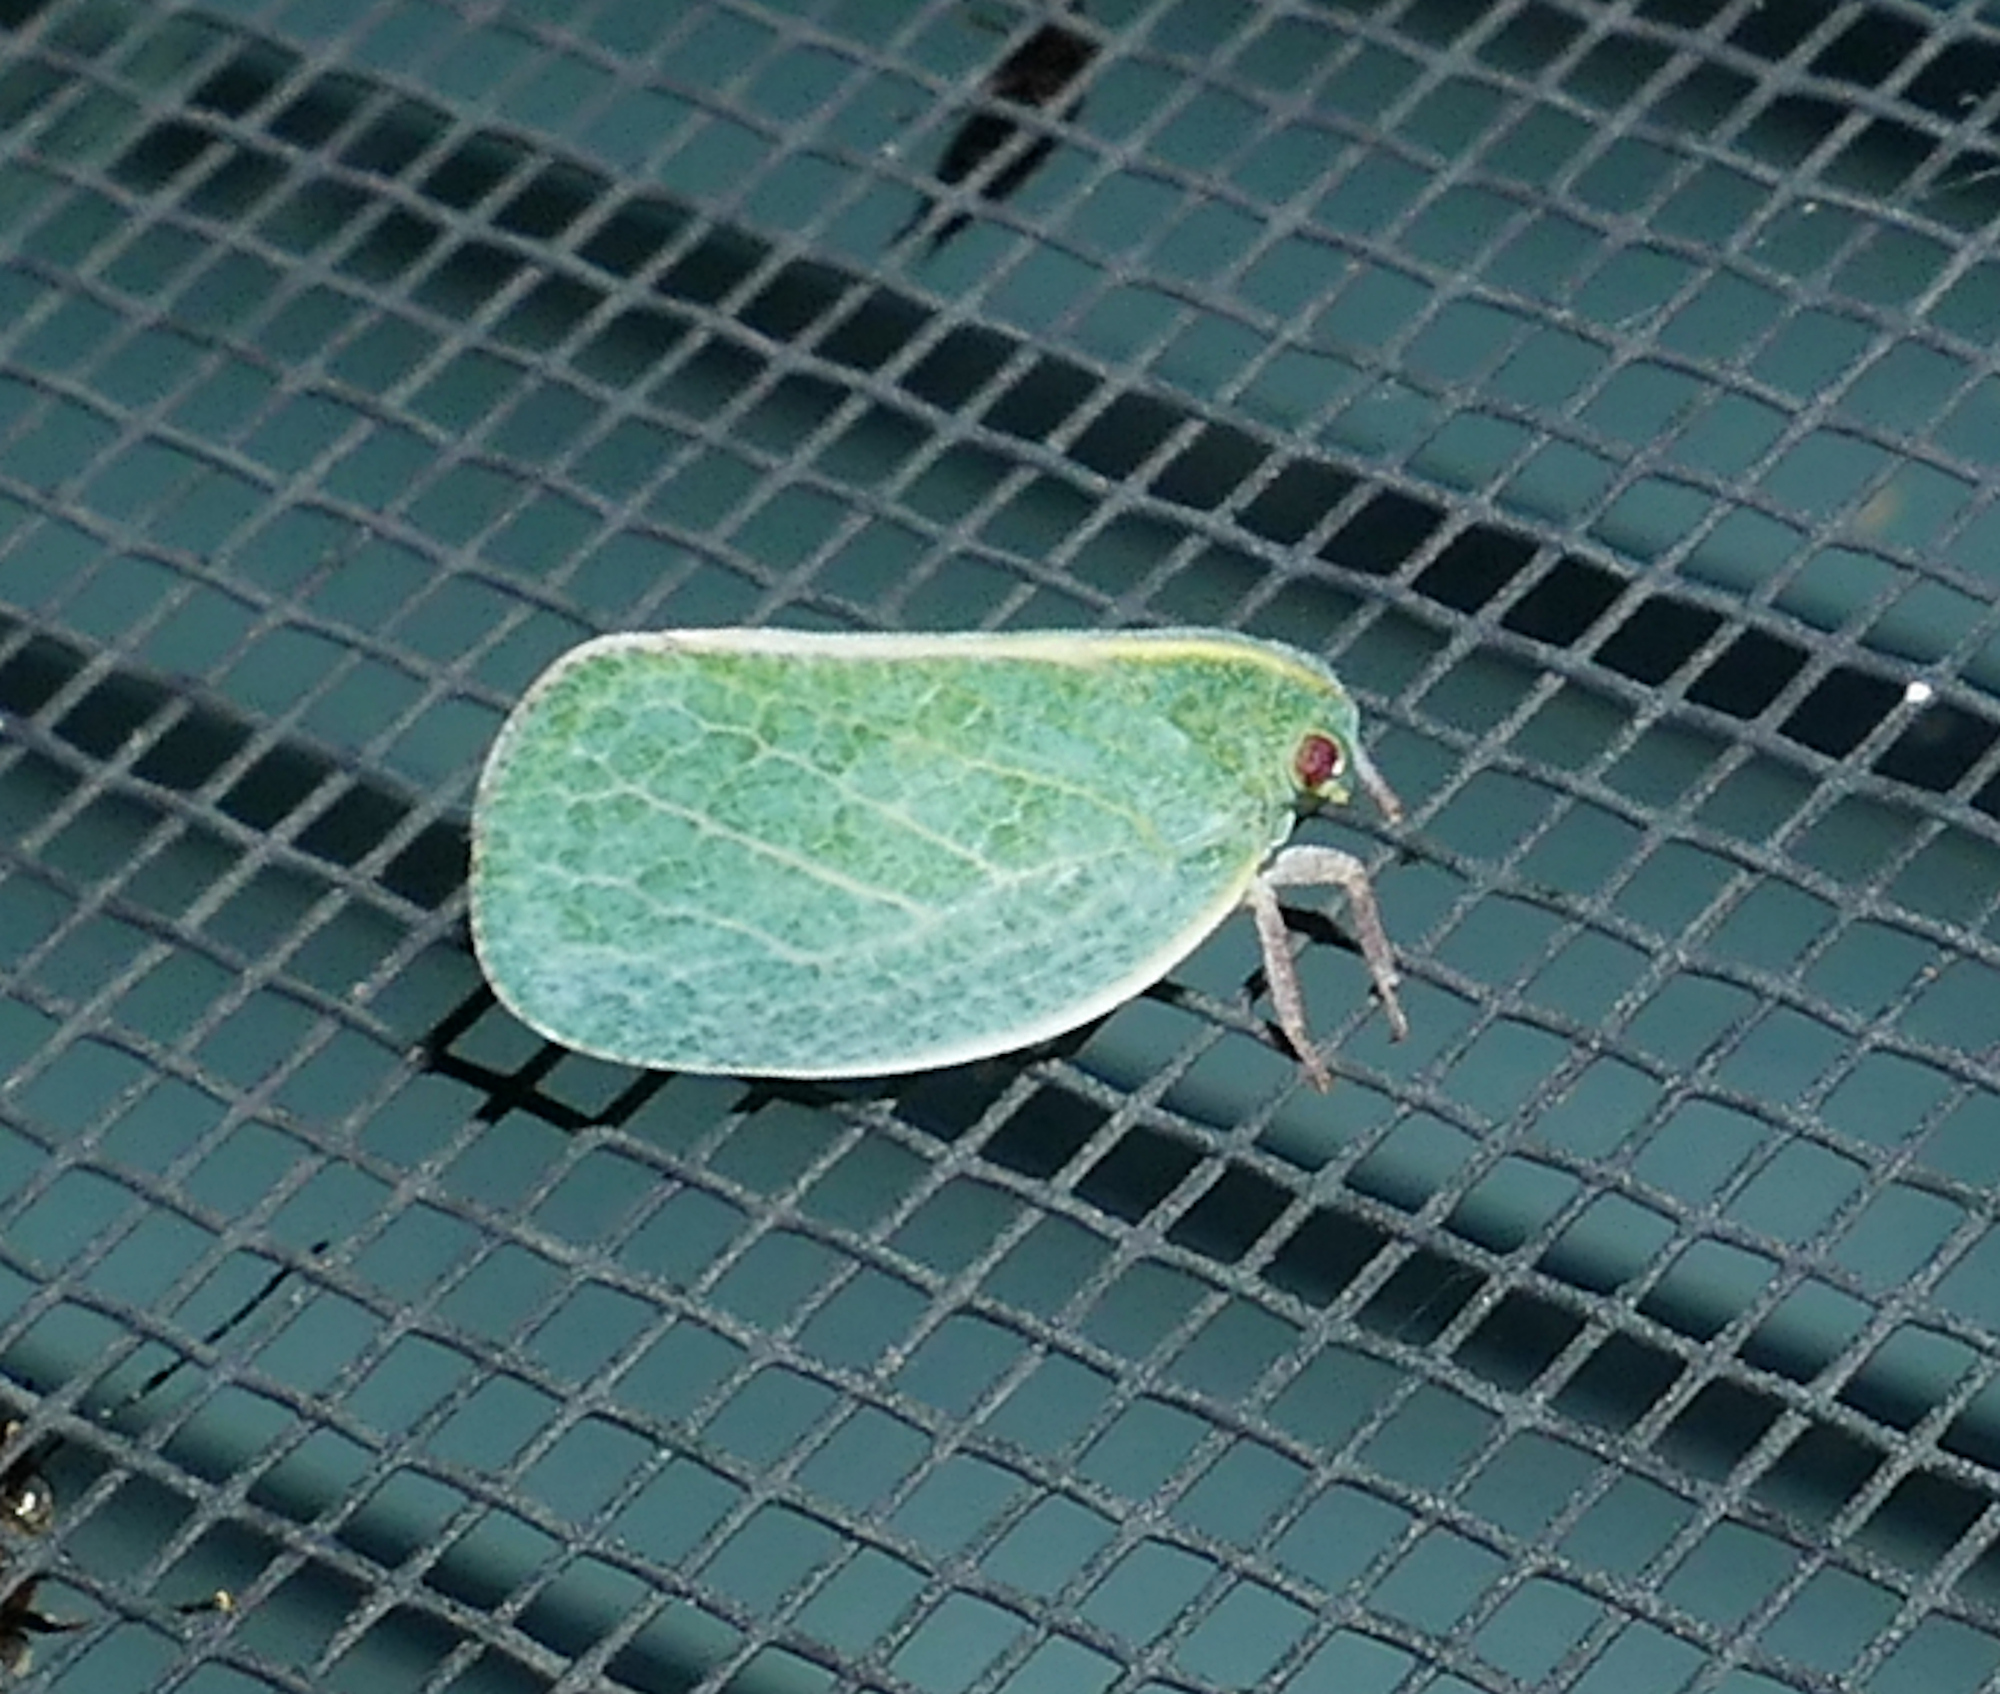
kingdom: Animalia
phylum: Arthropoda
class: Insecta
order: Hemiptera
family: Acanaloniidae
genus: Acanalonia
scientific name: Acanalonia servillei
